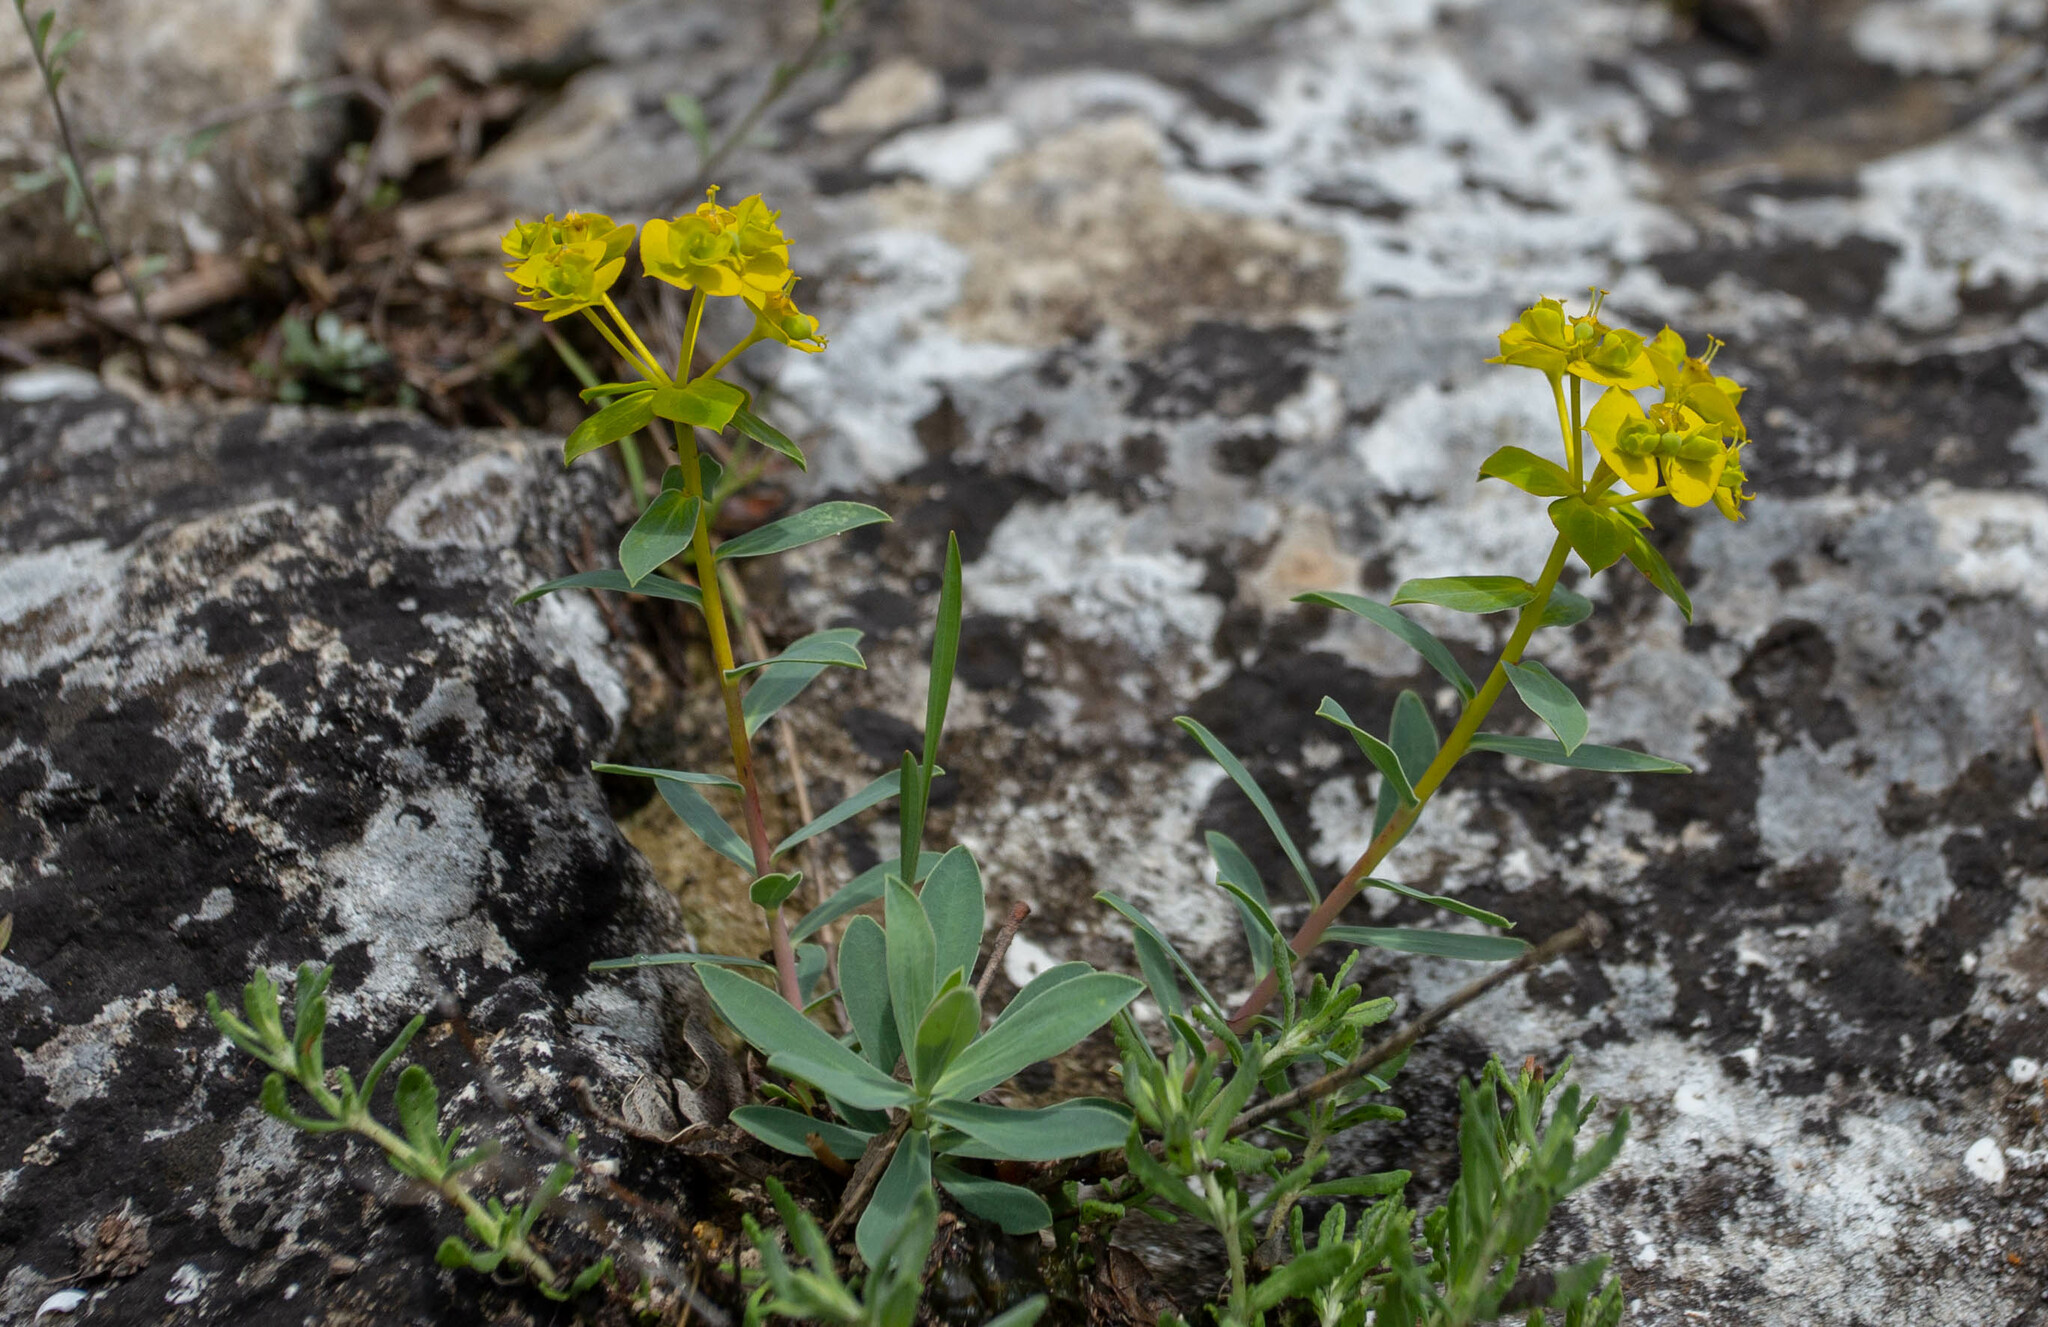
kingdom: Plantae
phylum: Tracheophyta
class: Magnoliopsida
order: Malpighiales
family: Euphorbiaceae
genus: Euphorbia
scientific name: Euphorbia glareosa
